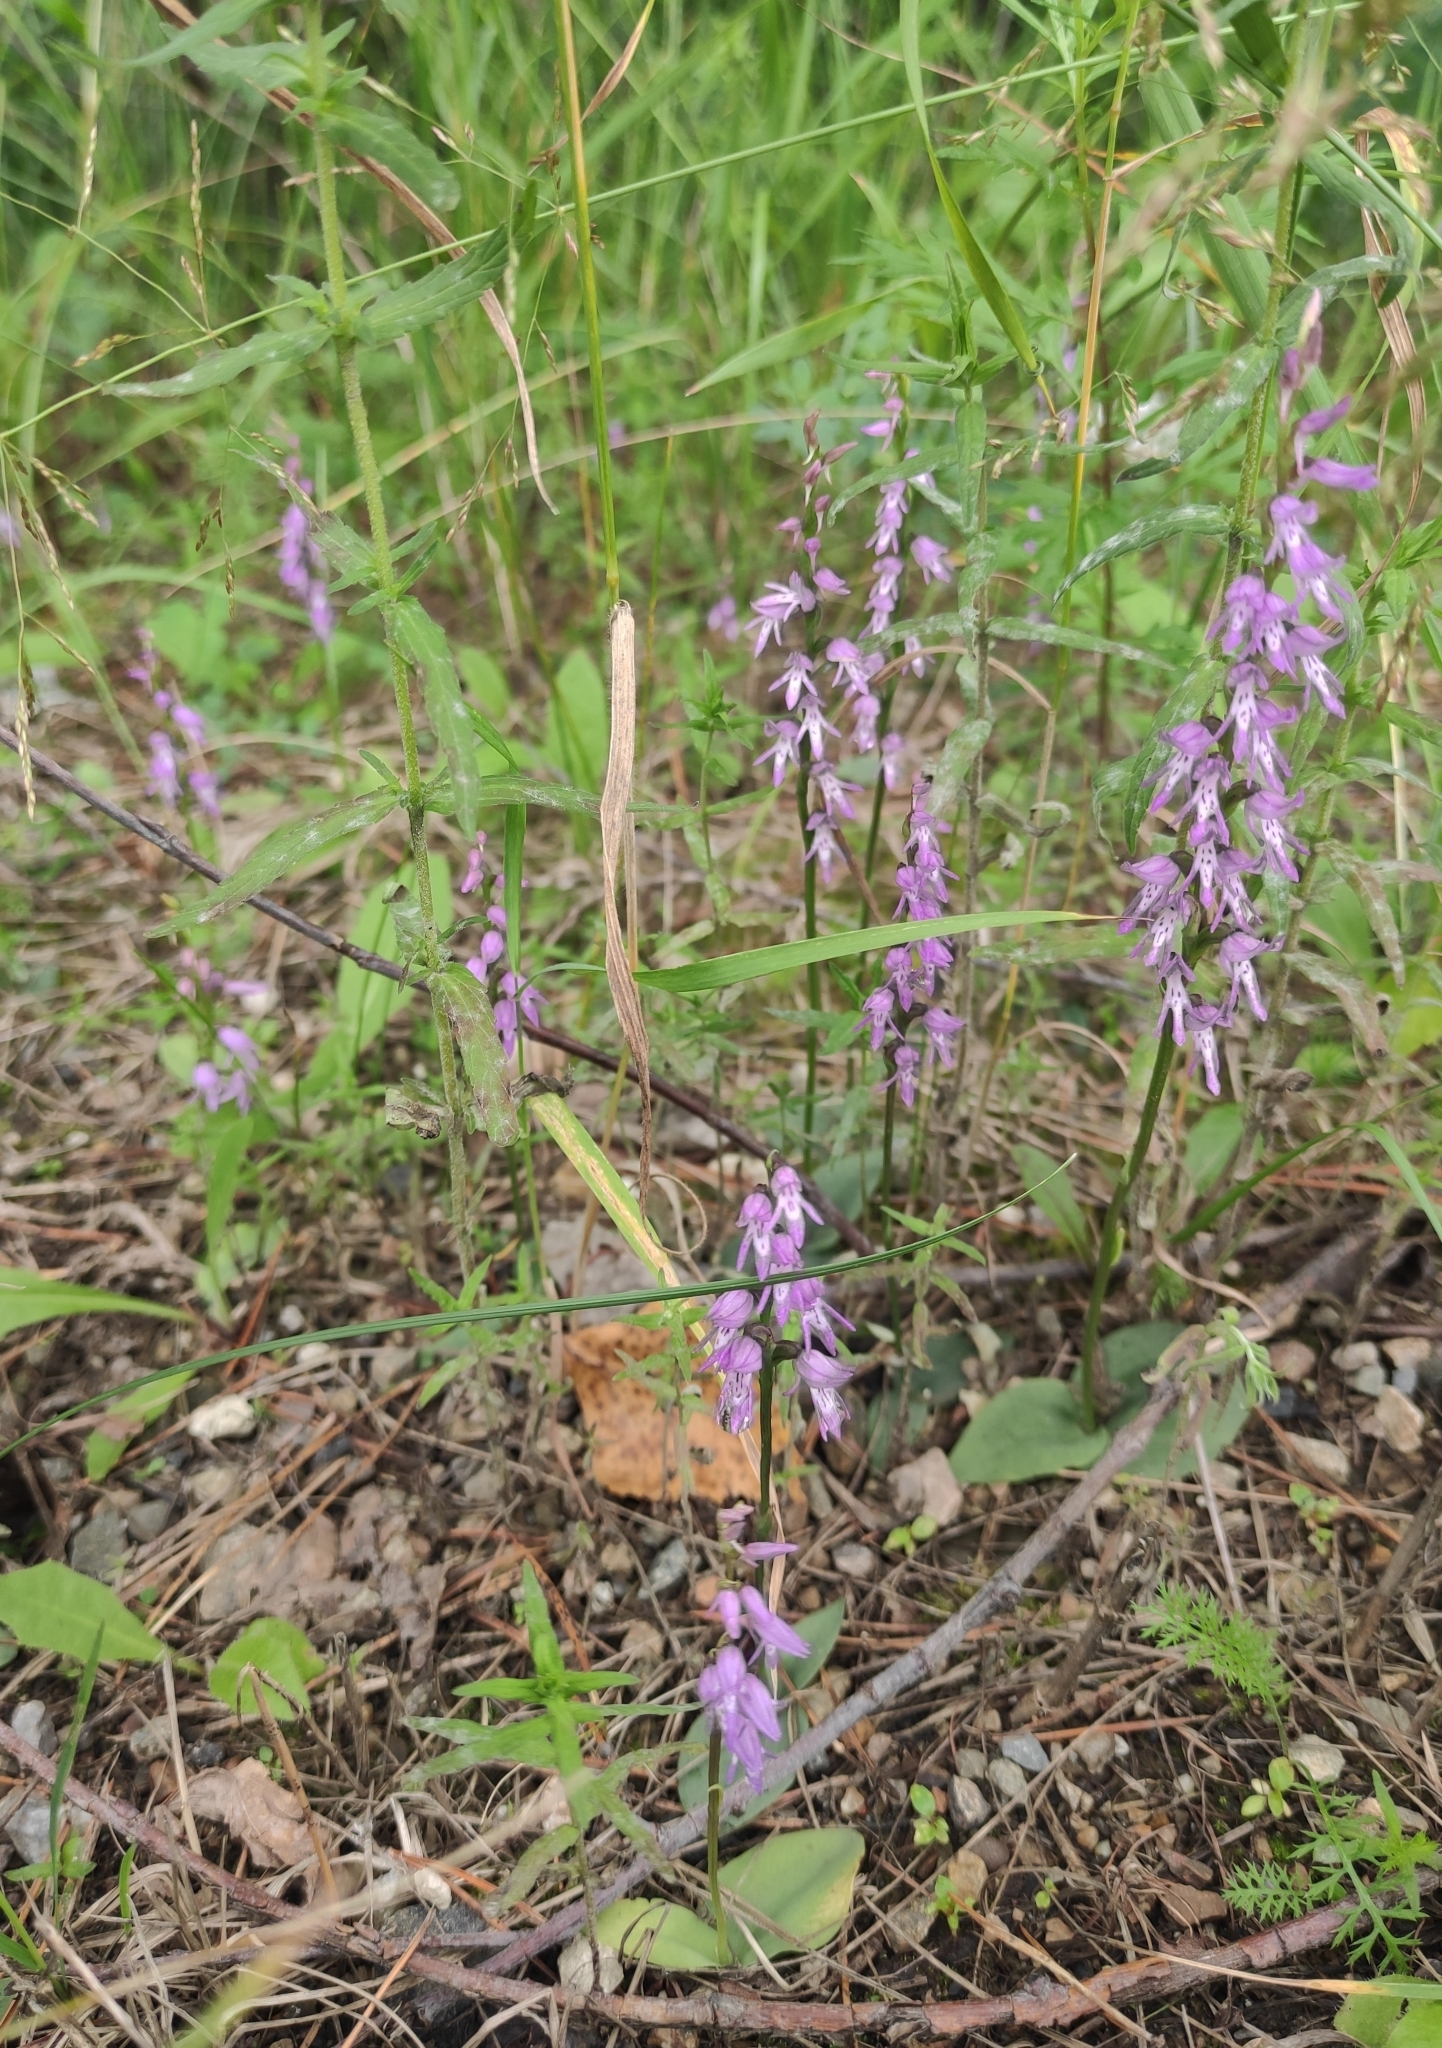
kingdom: Plantae
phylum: Tracheophyta
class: Liliopsida
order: Asparagales
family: Orchidaceae
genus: Hemipilia
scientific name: Hemipilia cucullata
